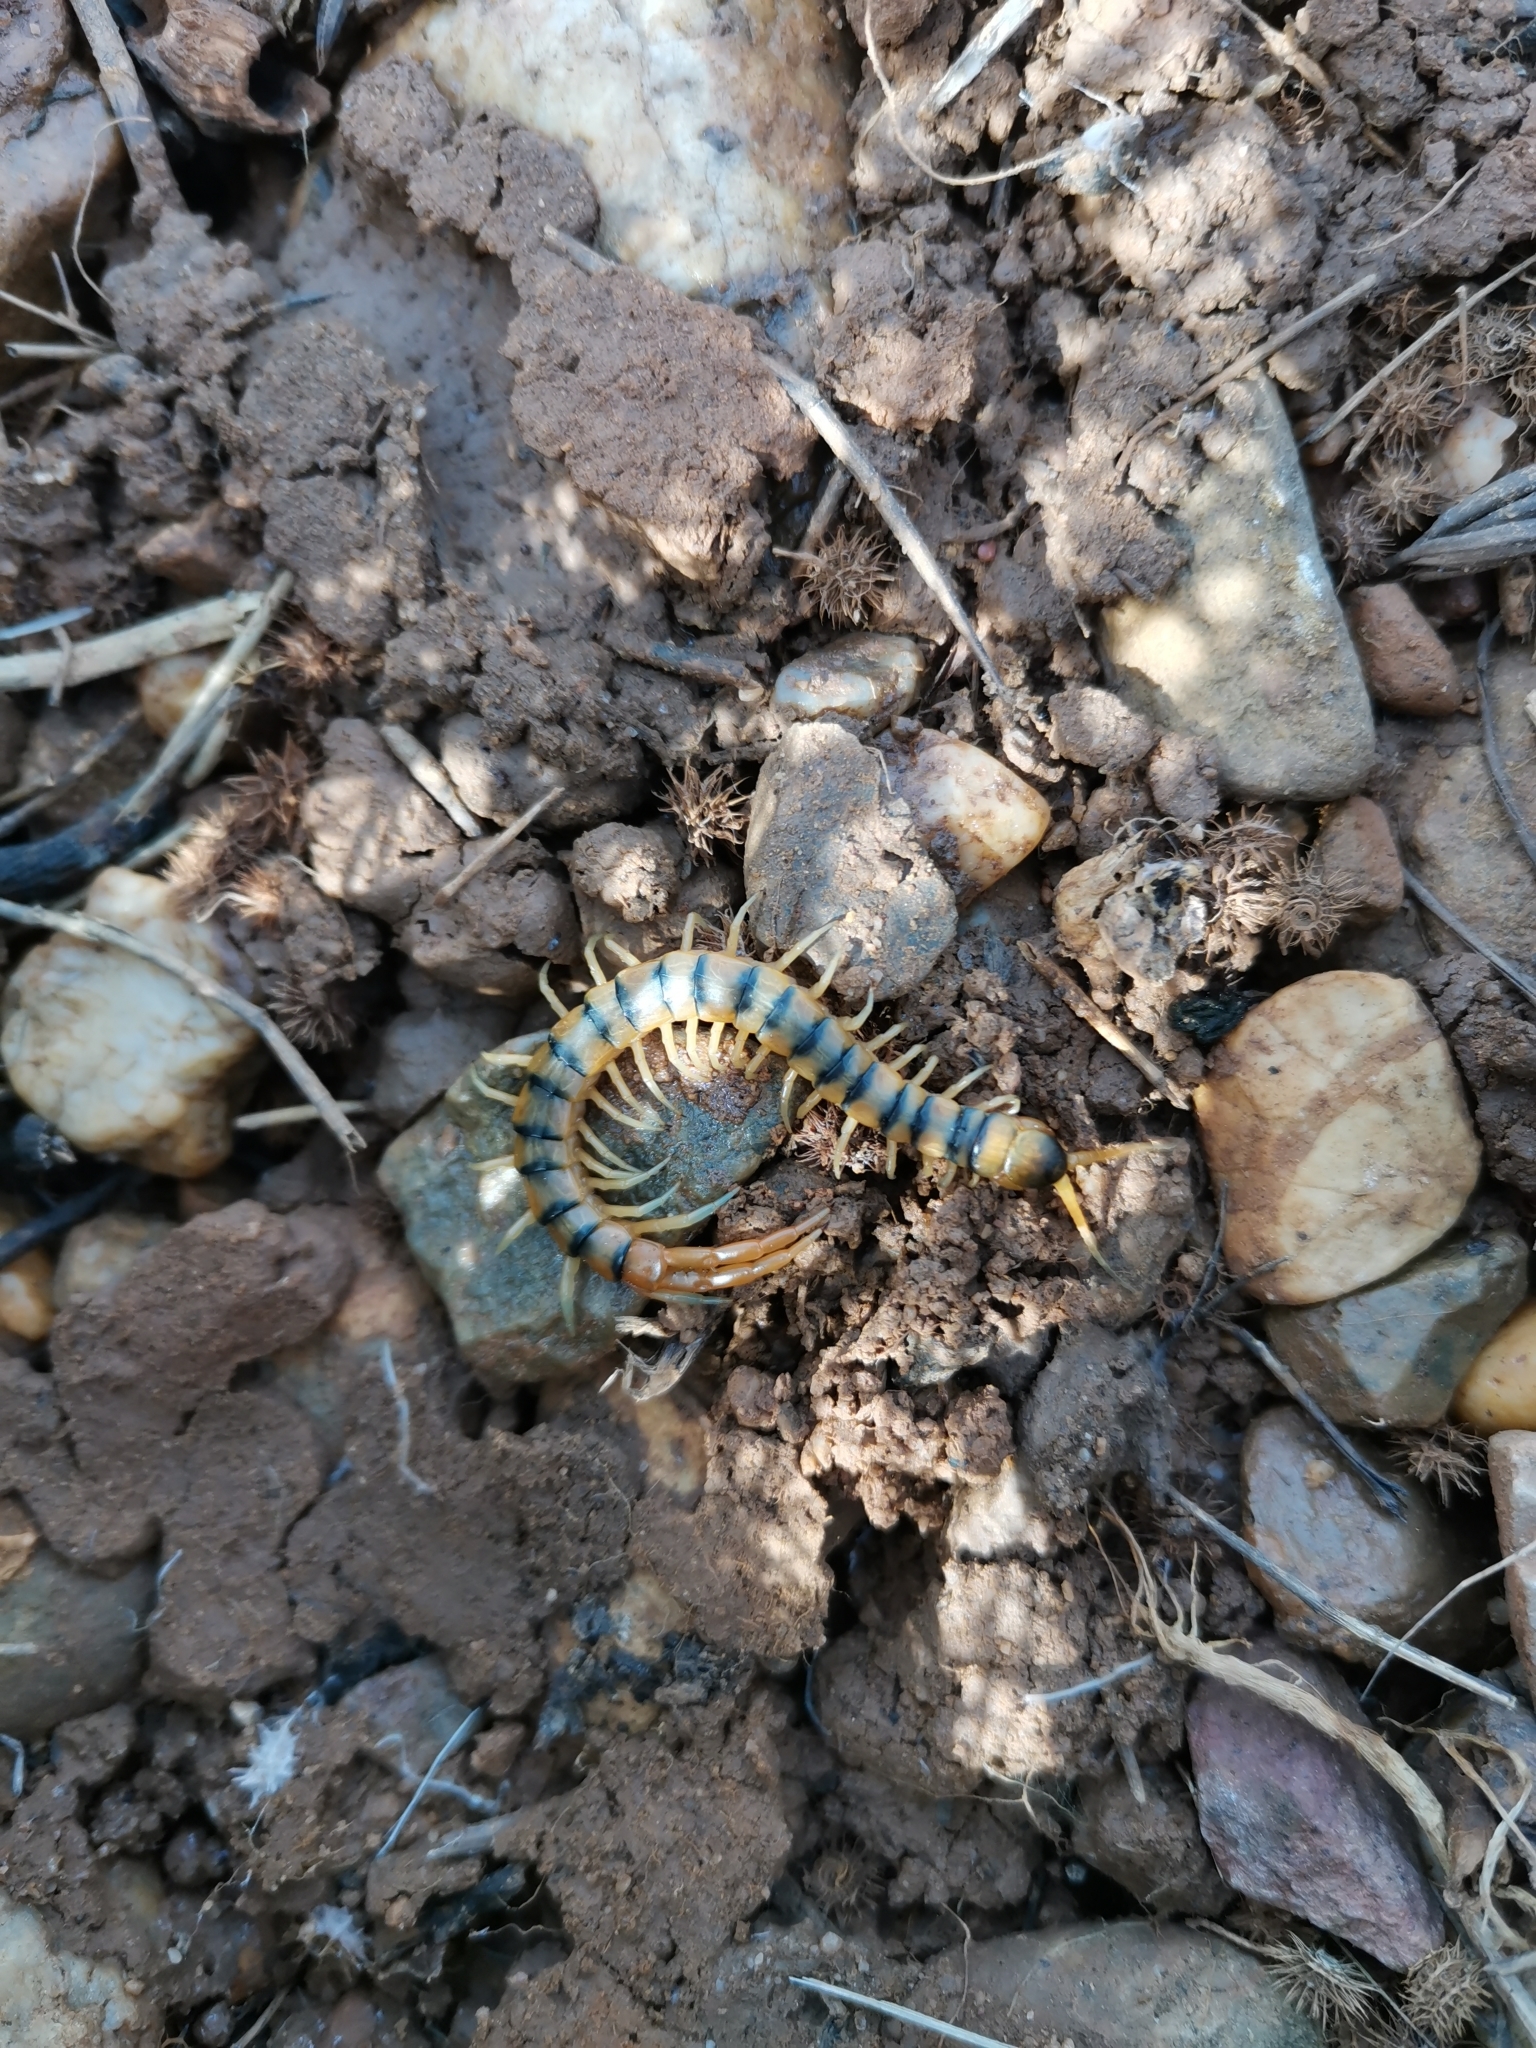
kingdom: Animalia
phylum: Arthropoda
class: Chilopoda
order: Scolopendromorpha
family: Scolopendridae
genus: Scolopendra
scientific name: Scolopendra cingulata
